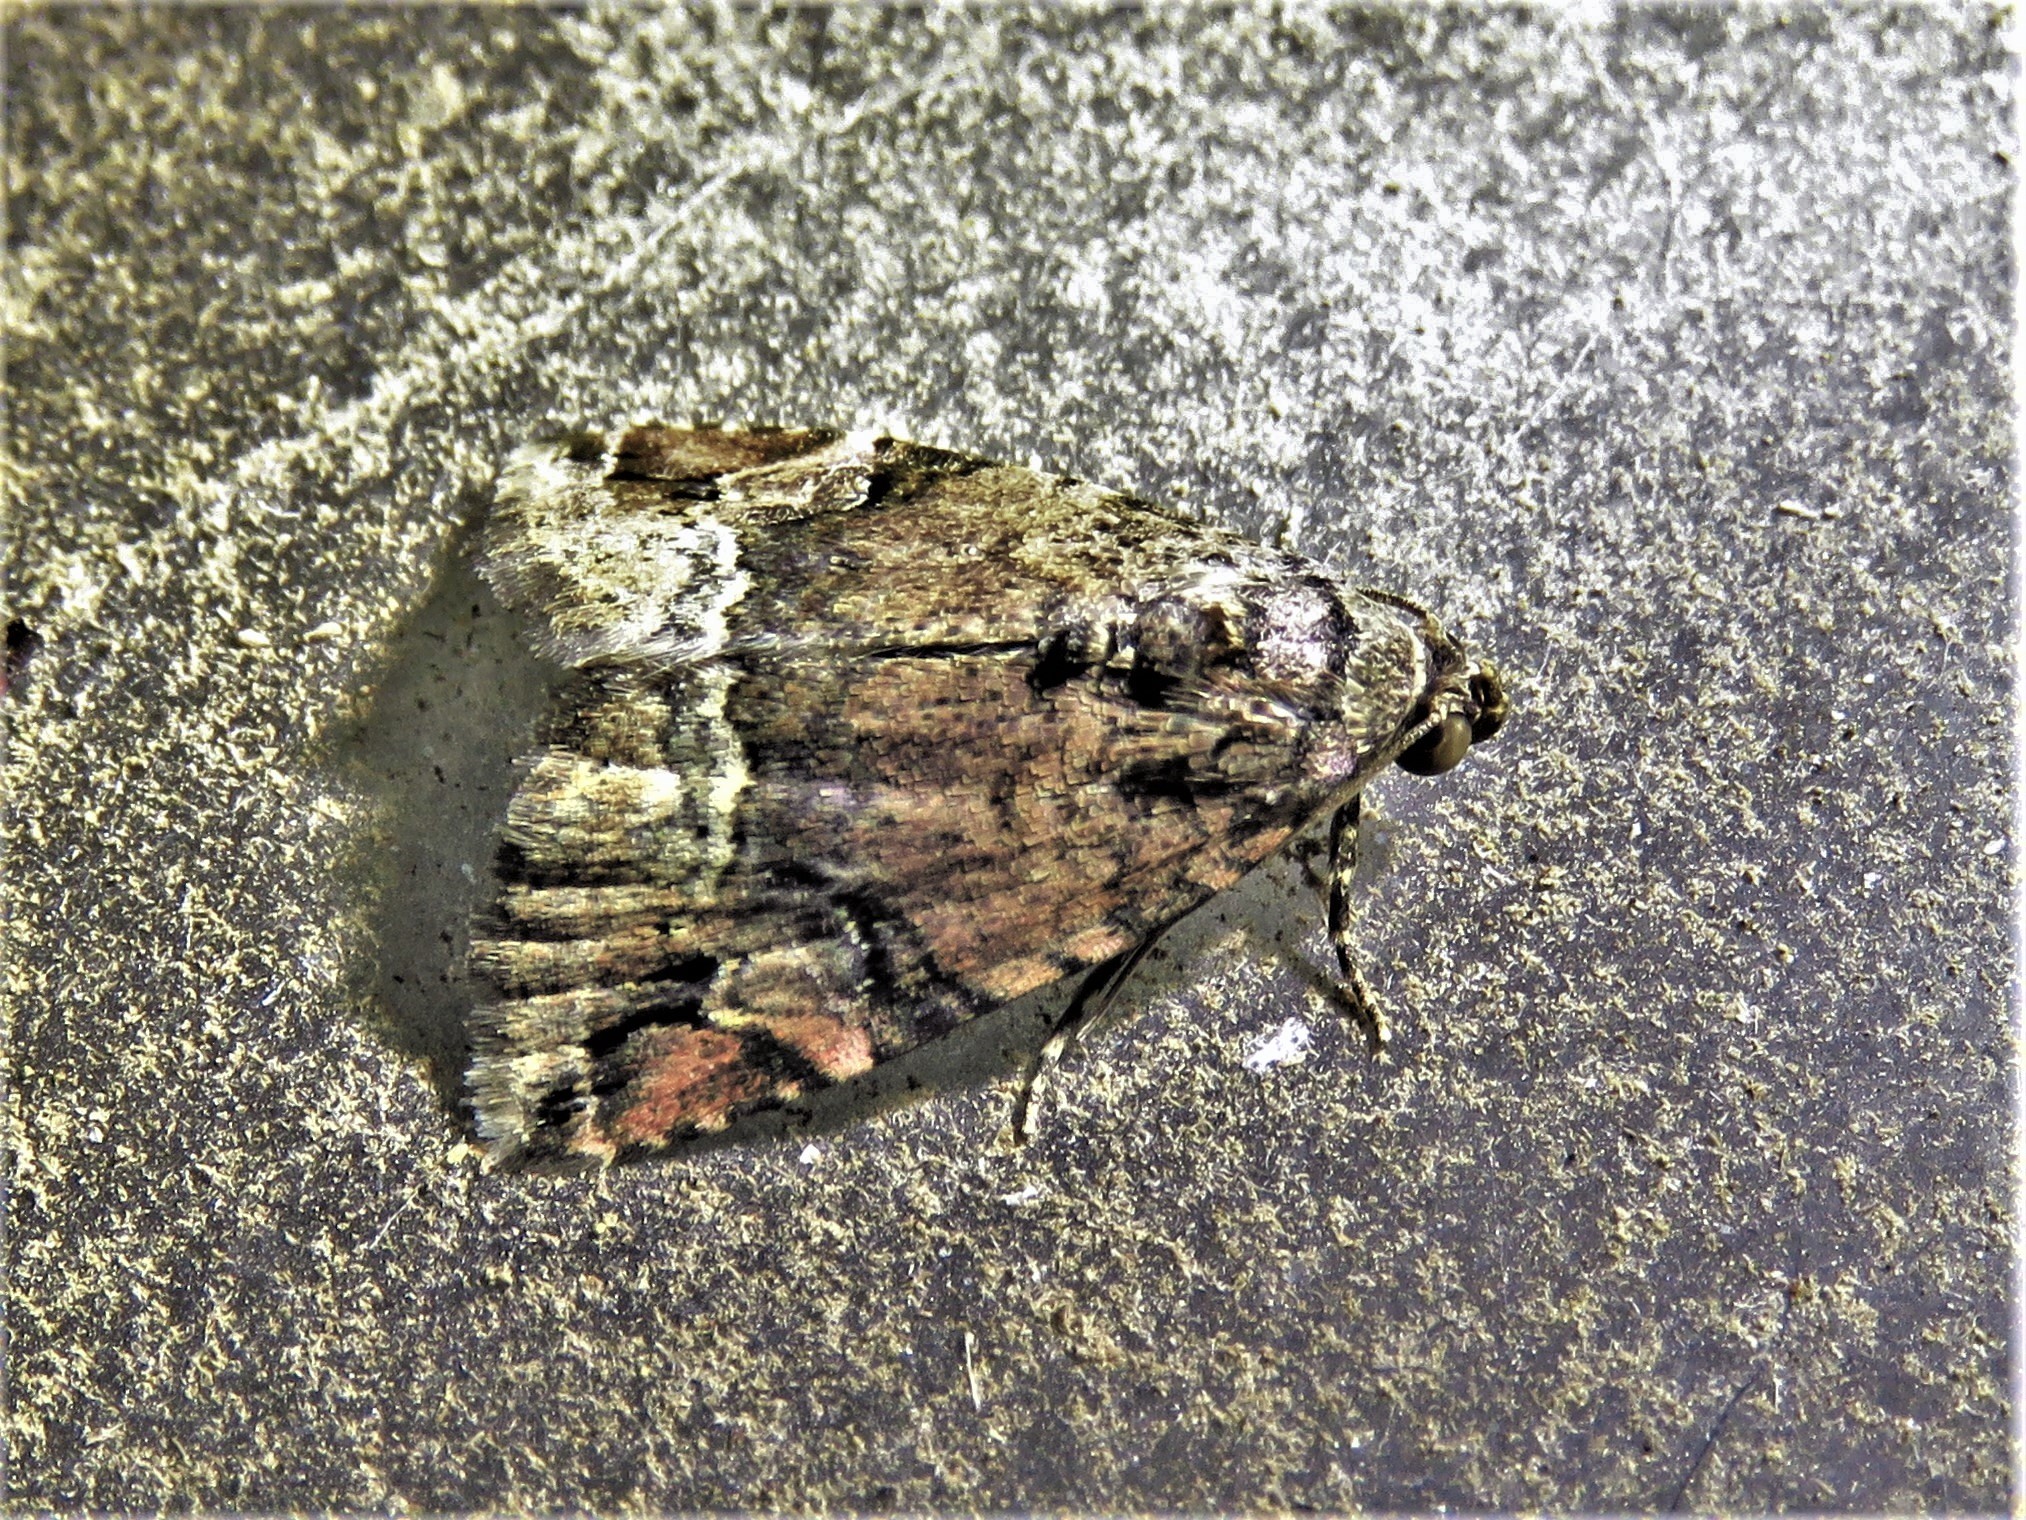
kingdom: Animalia
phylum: Arthropoda
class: Insecta
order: Lepidoptera
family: Noctuidae
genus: Ozarba
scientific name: Ozarba aeria
